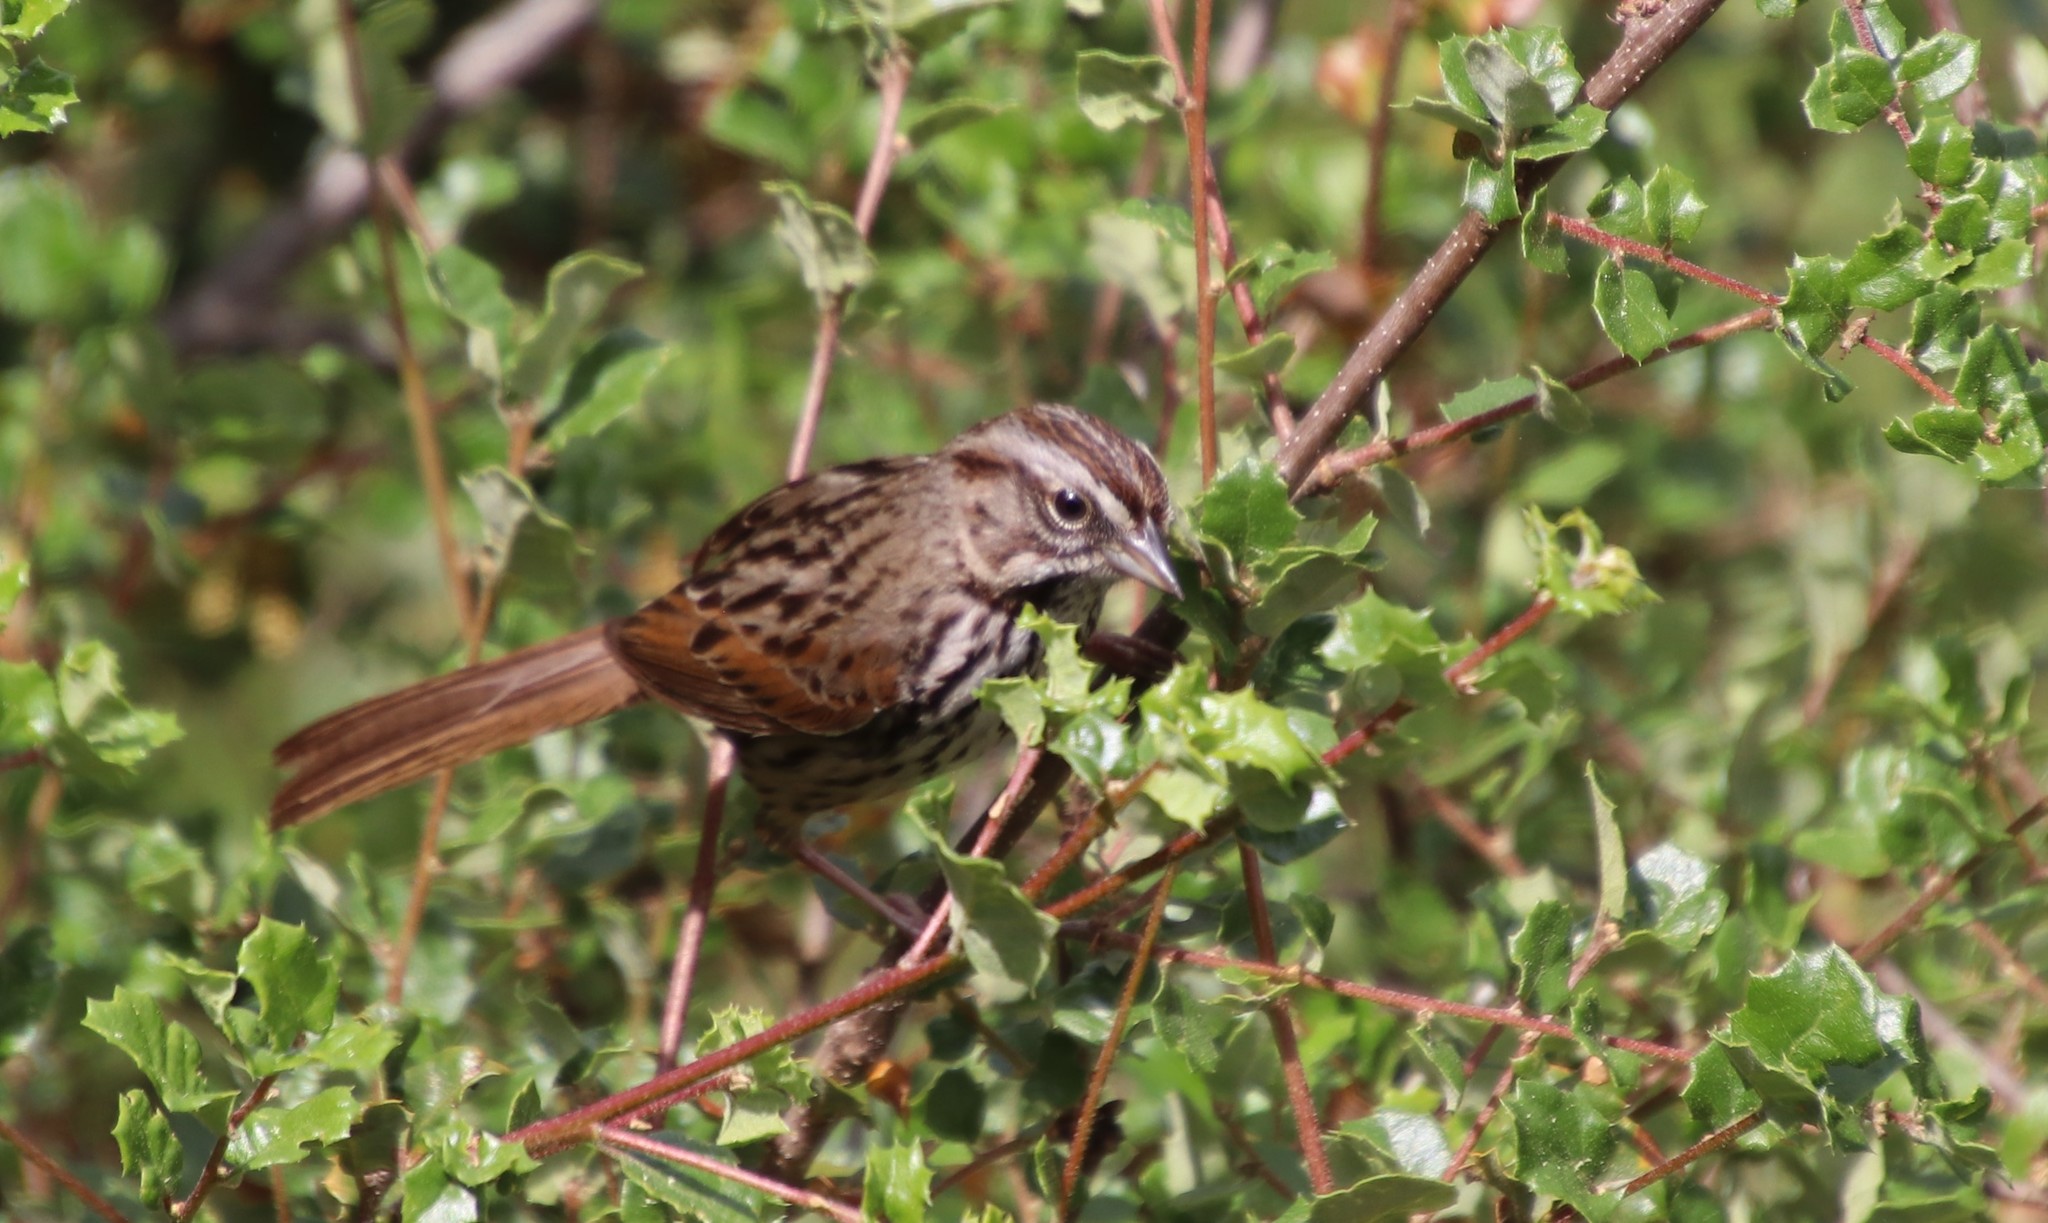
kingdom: Animalia
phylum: Chordata
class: Aves
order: Passeriformes
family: Passerellidae
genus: Melospiza
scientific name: Melospiza melodia
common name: Song sparrow
